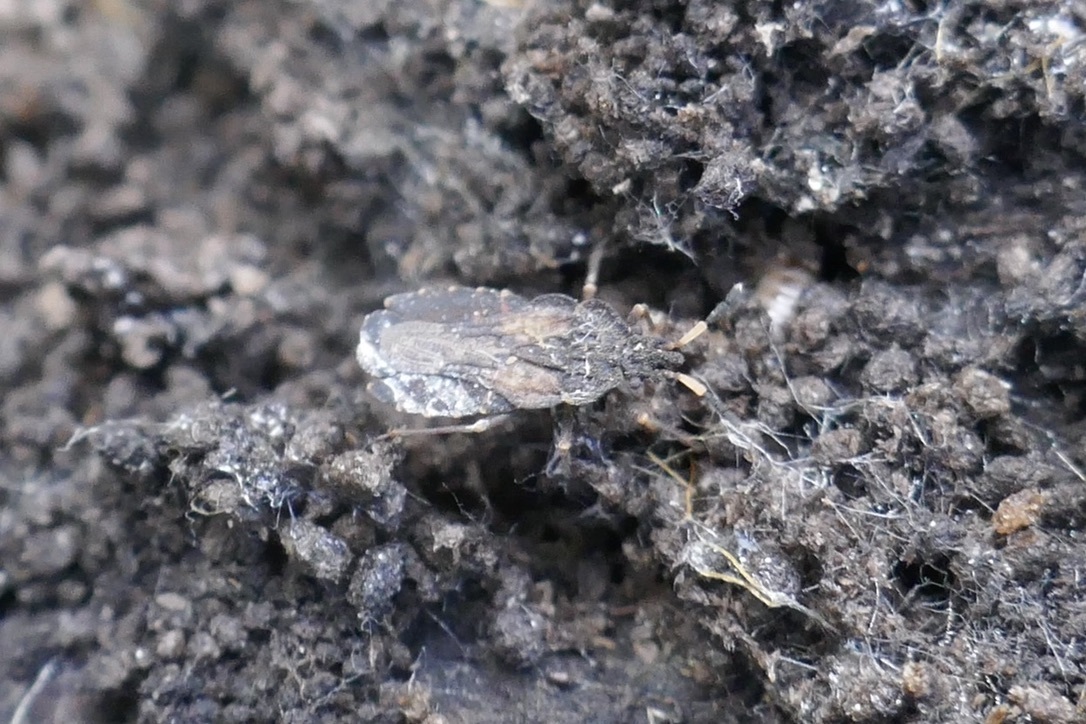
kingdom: Animalia
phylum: Arthropoda
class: Insecta
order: Hemiptera
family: Aradidae
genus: Aradus
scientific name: Aradus distinctus
